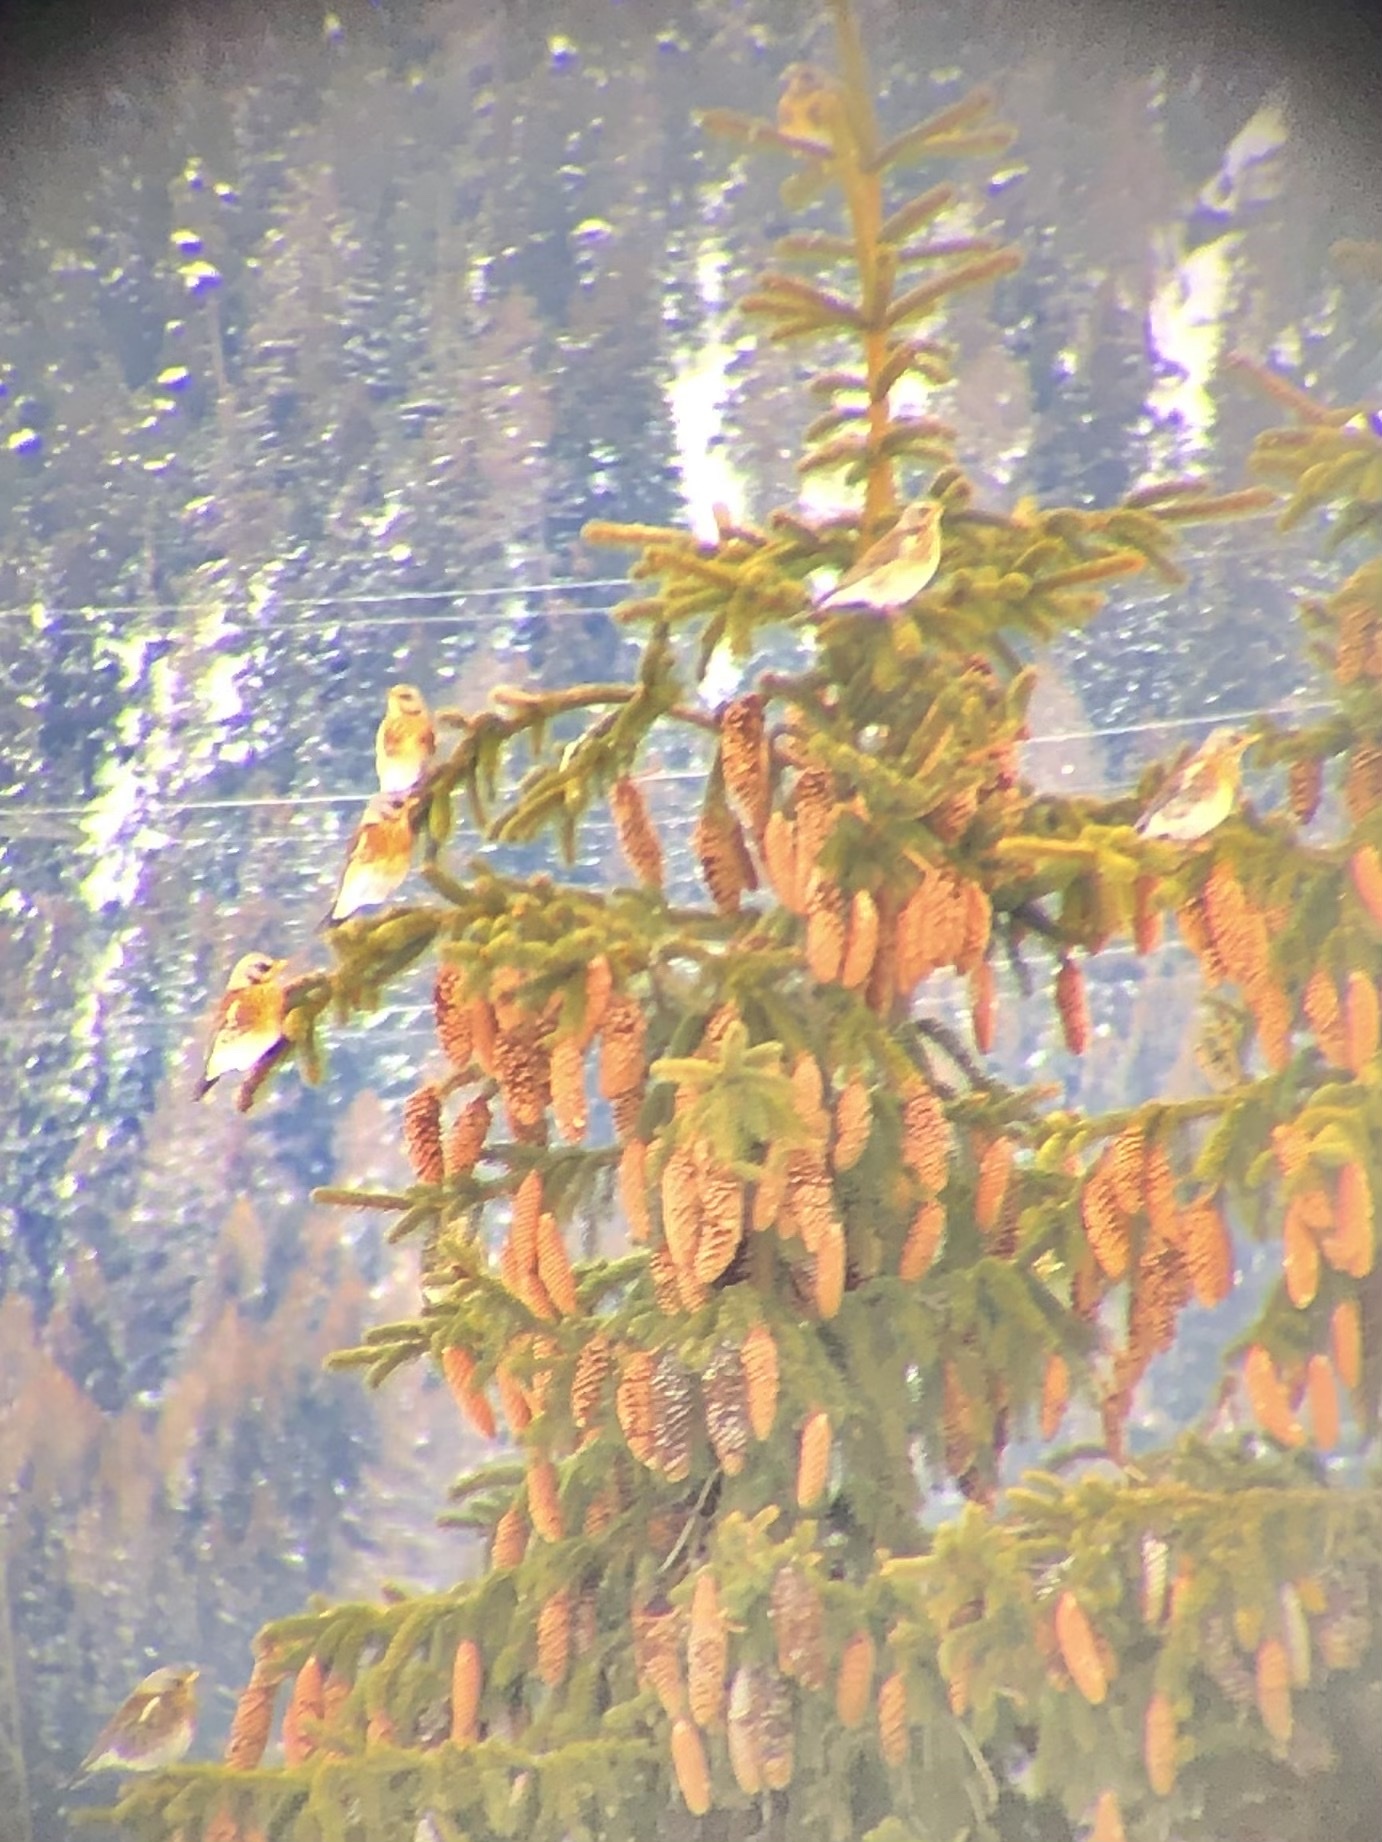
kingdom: Animalia
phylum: Chordata
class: Aves
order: Passeriformes
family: Turdidae
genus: Turdus
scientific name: Turdus pilaris
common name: Fieldfare
